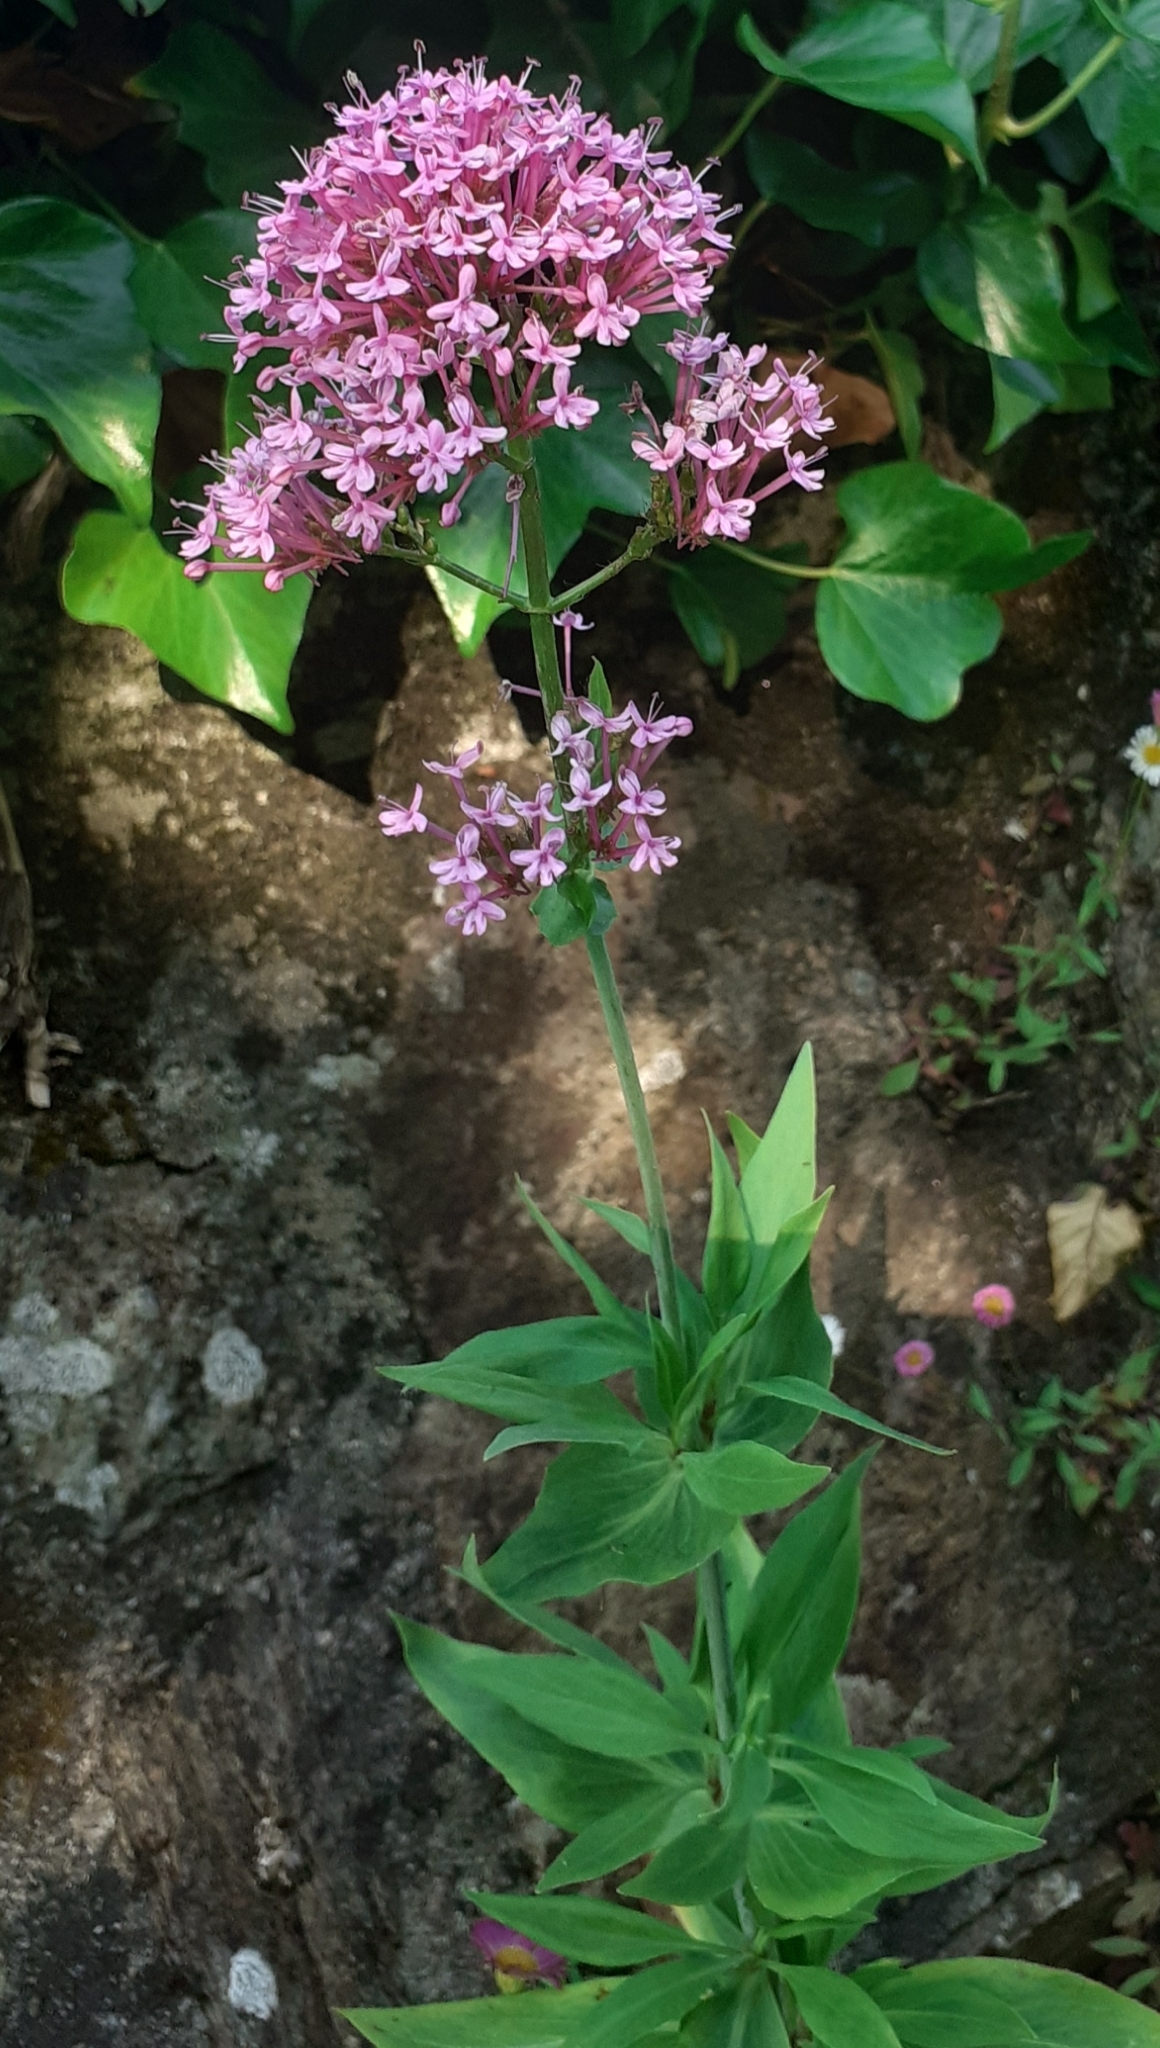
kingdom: Plantae
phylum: Tracheophyta
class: Magnoliopsida
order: Dipsacales
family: Caprifoliaceae
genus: Centranthus
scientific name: Centranthus ruber
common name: Red valerian
